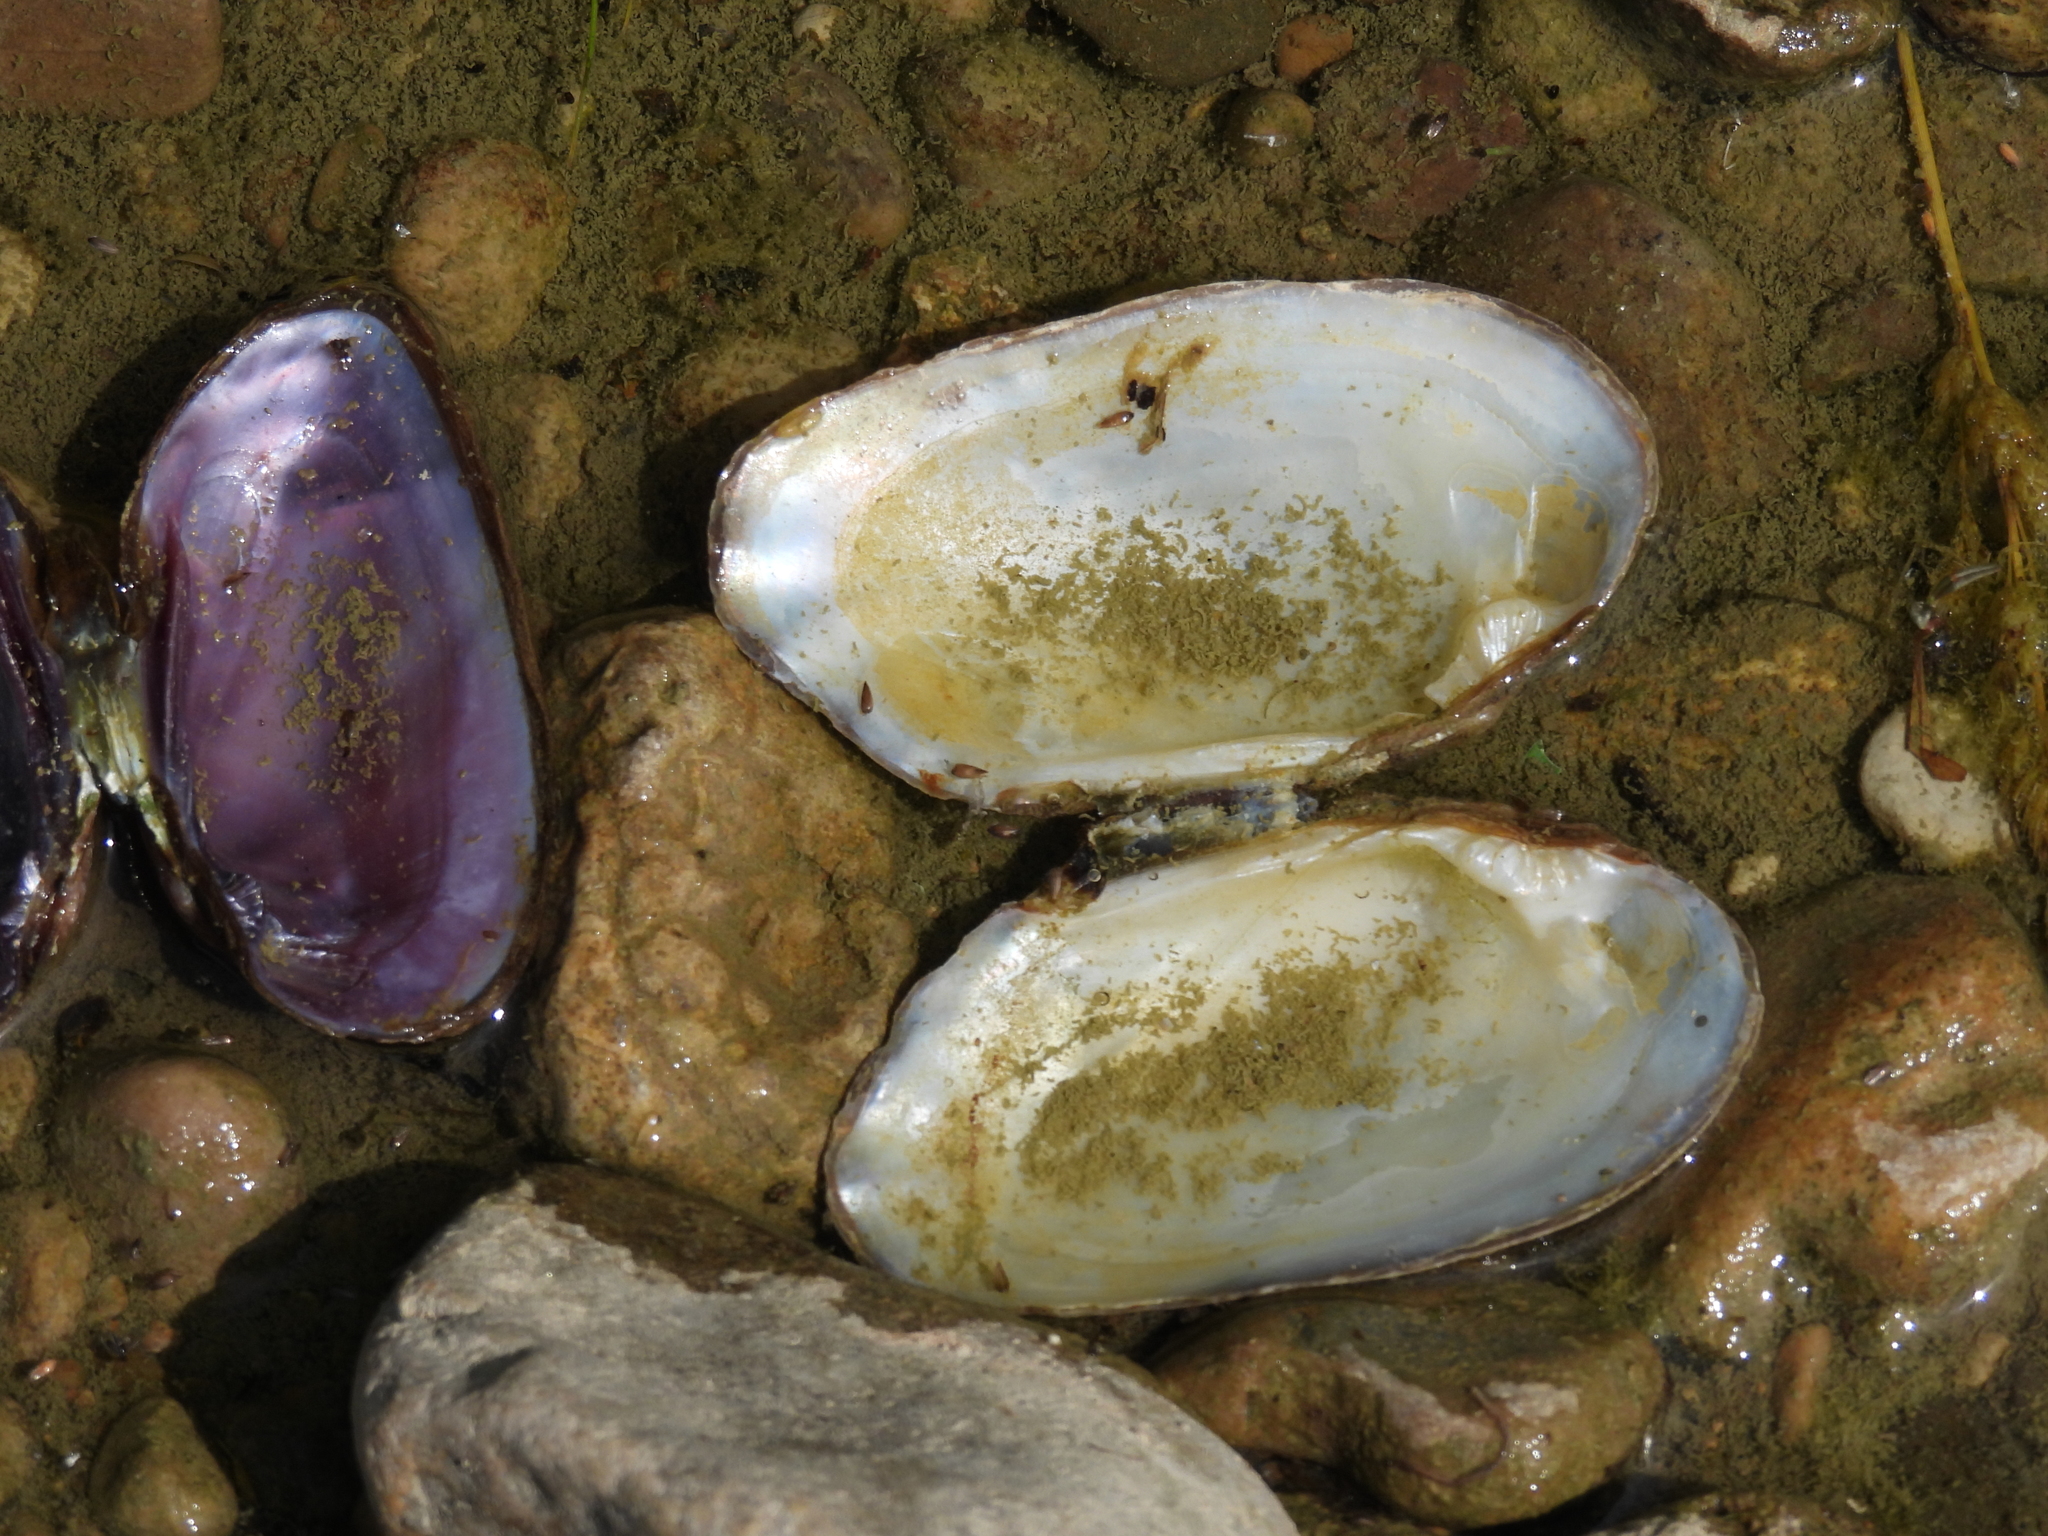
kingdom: Animalia
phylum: Mollusca
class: Bivalvia
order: Unionida
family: Unionidae
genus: Lasmigona
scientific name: Lasmigona costata
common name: Flutedshell
